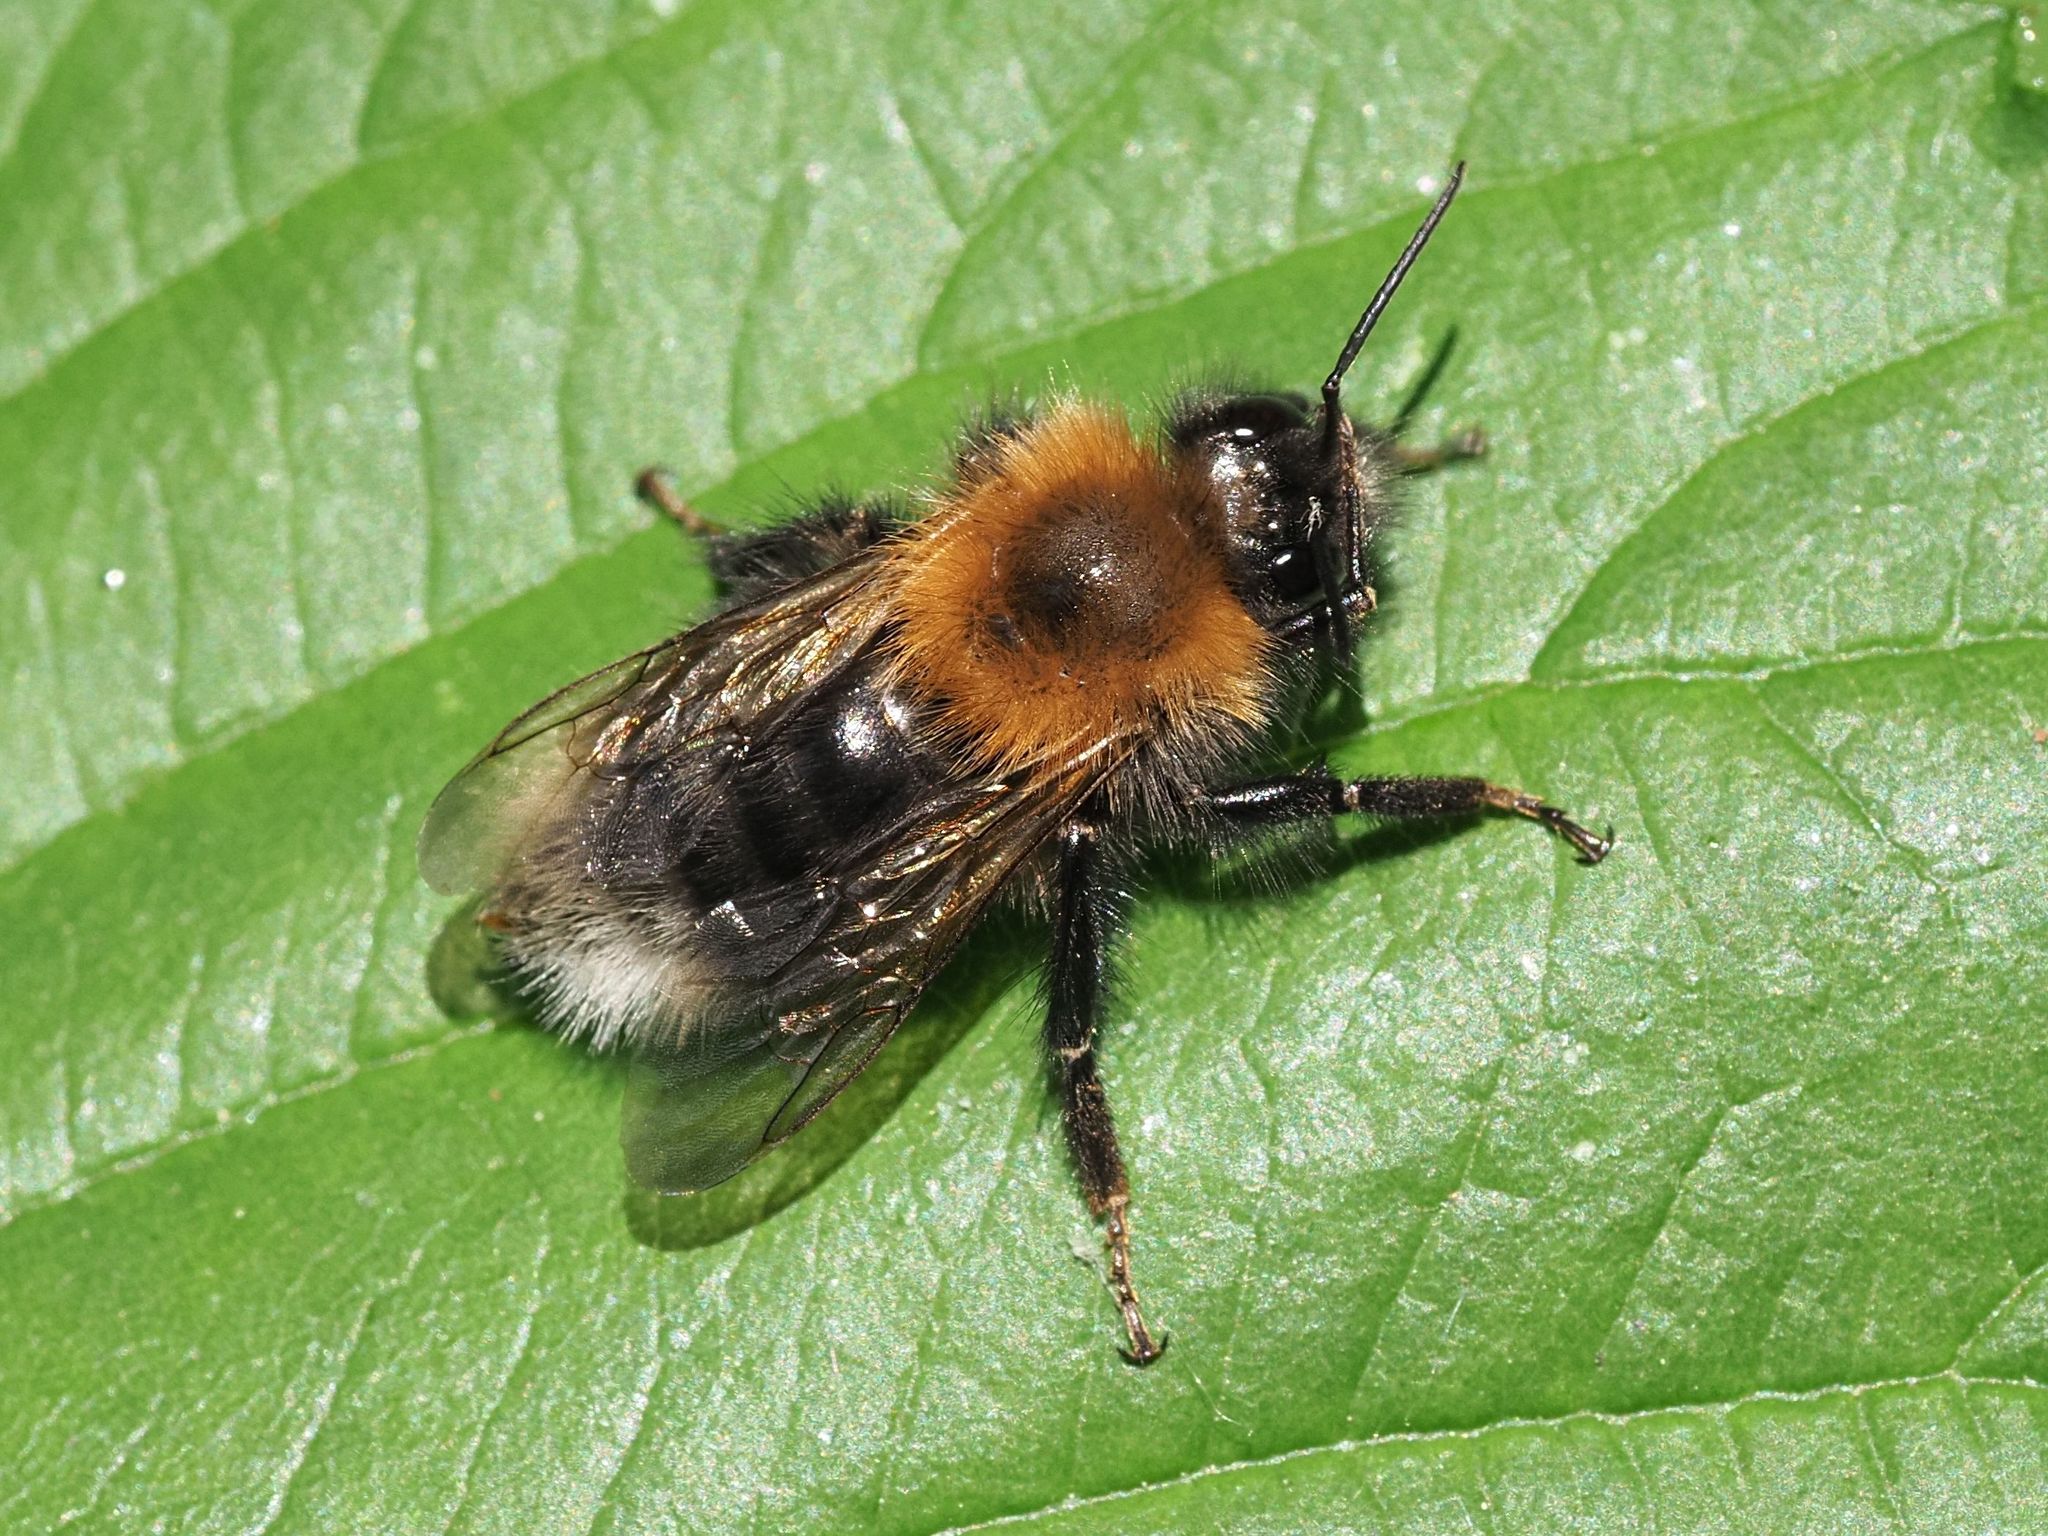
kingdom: Animalia
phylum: Arthropoda
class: Insecta
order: Hymenoptera
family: Apidae
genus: Bombus
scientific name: Bombus hypnorum
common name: New garden bumblebee
